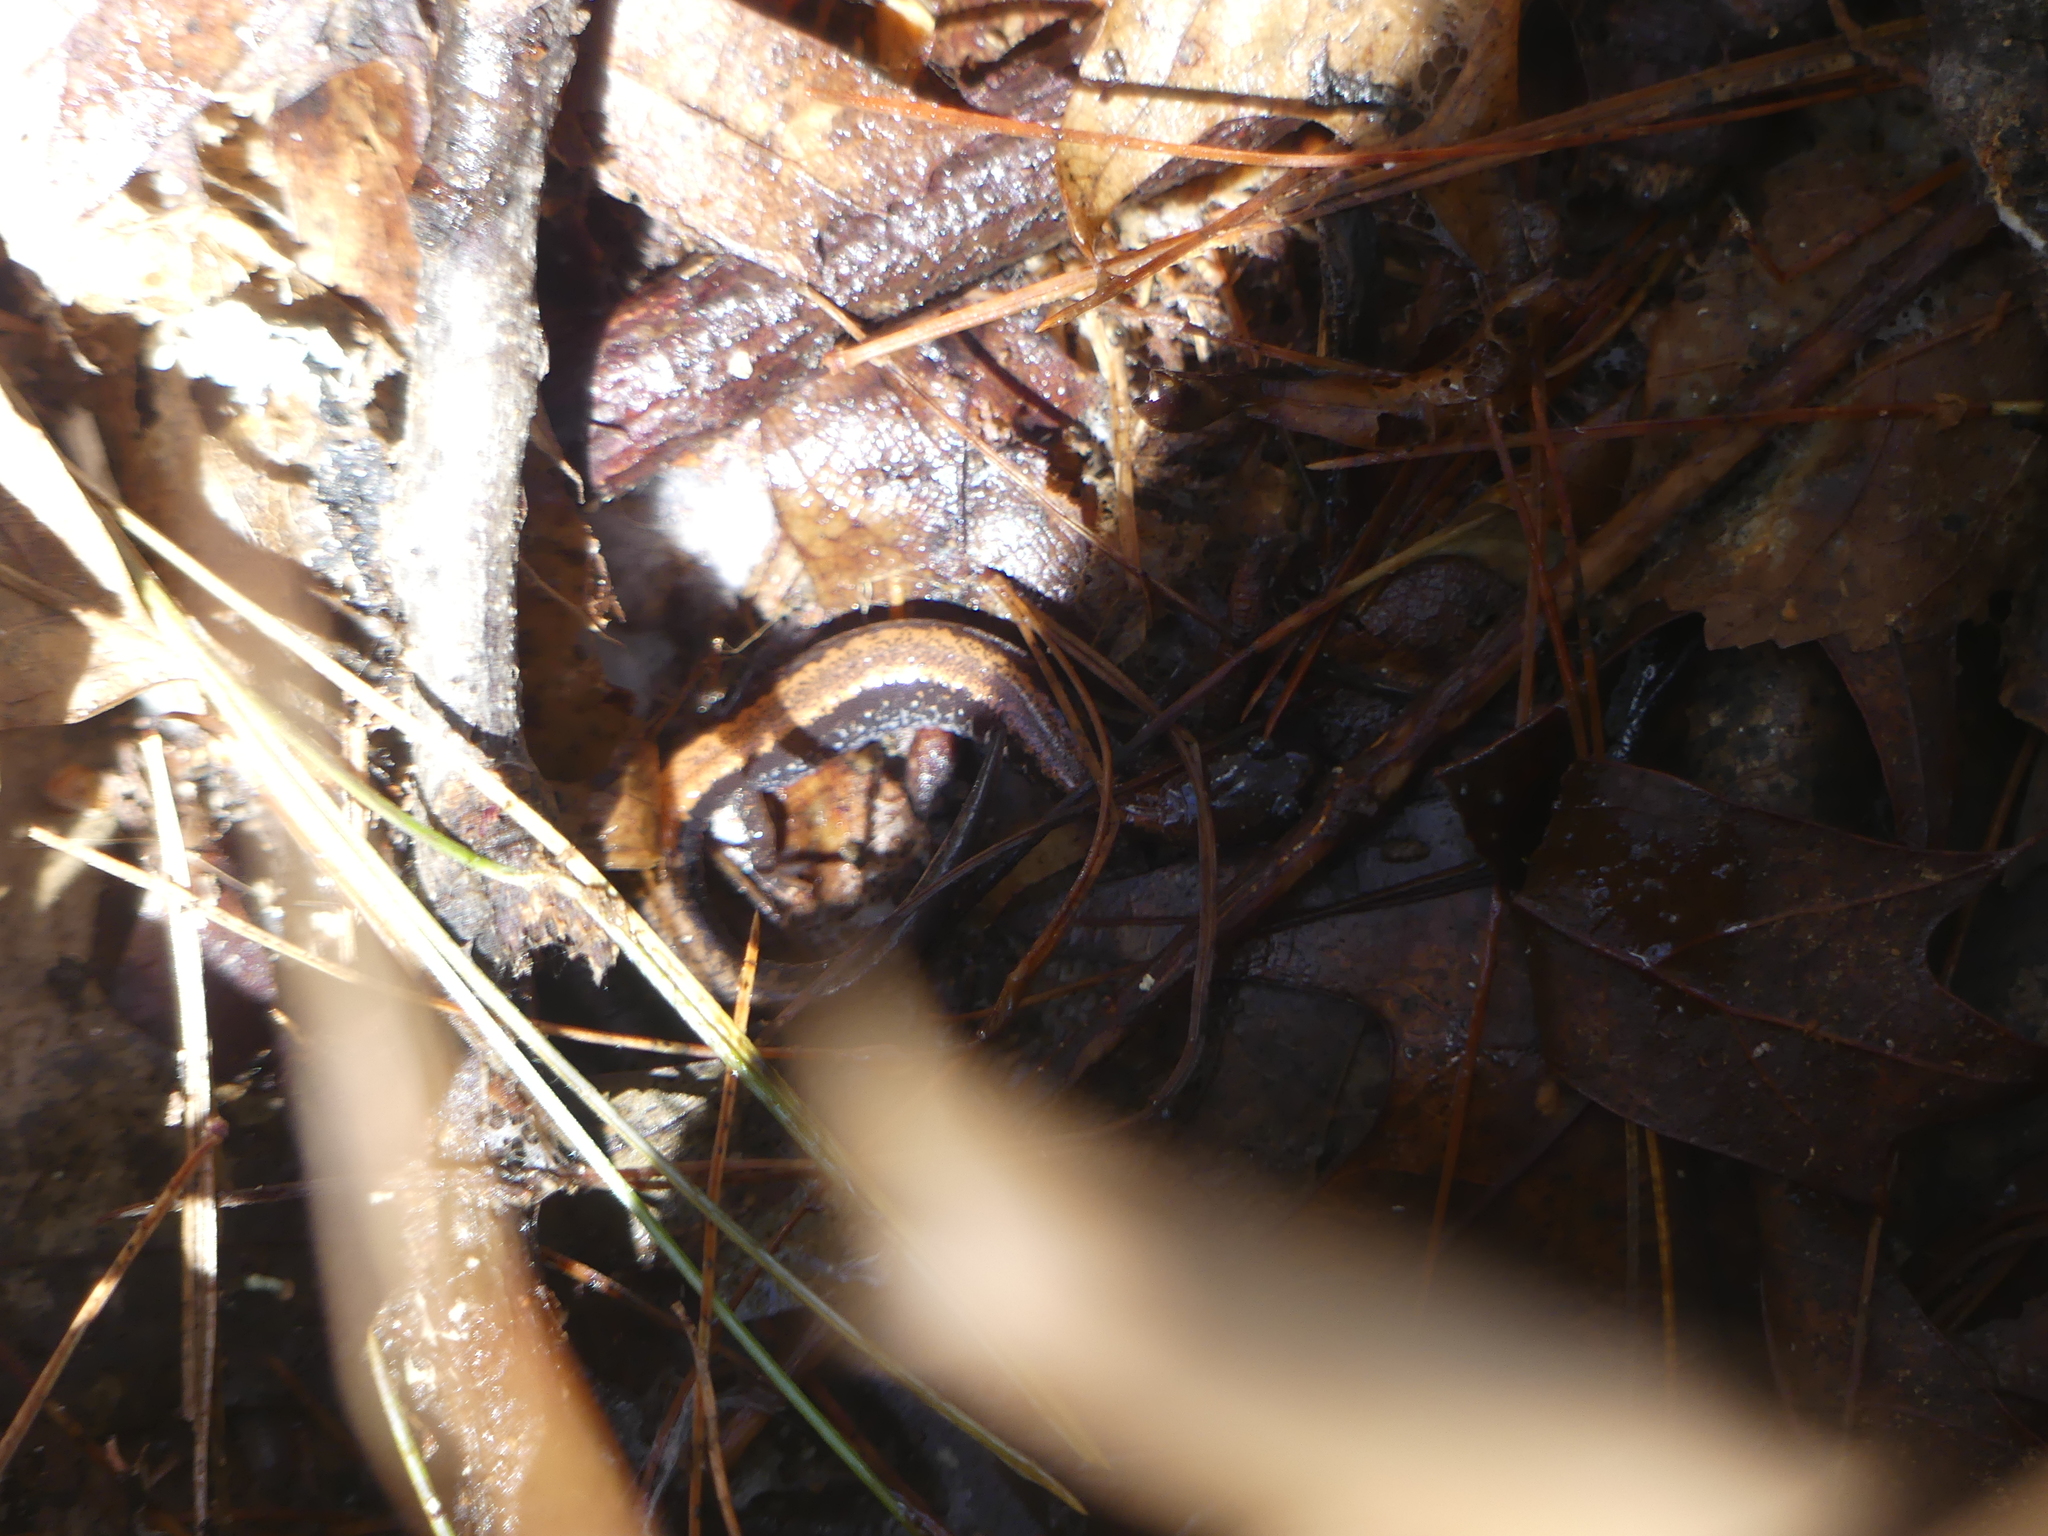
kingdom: Animalia
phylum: Chordata
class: Amphibia
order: Caudata
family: Plethodontidae
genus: Plethodon
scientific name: Plethodon cinereus
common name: Redback salamander
